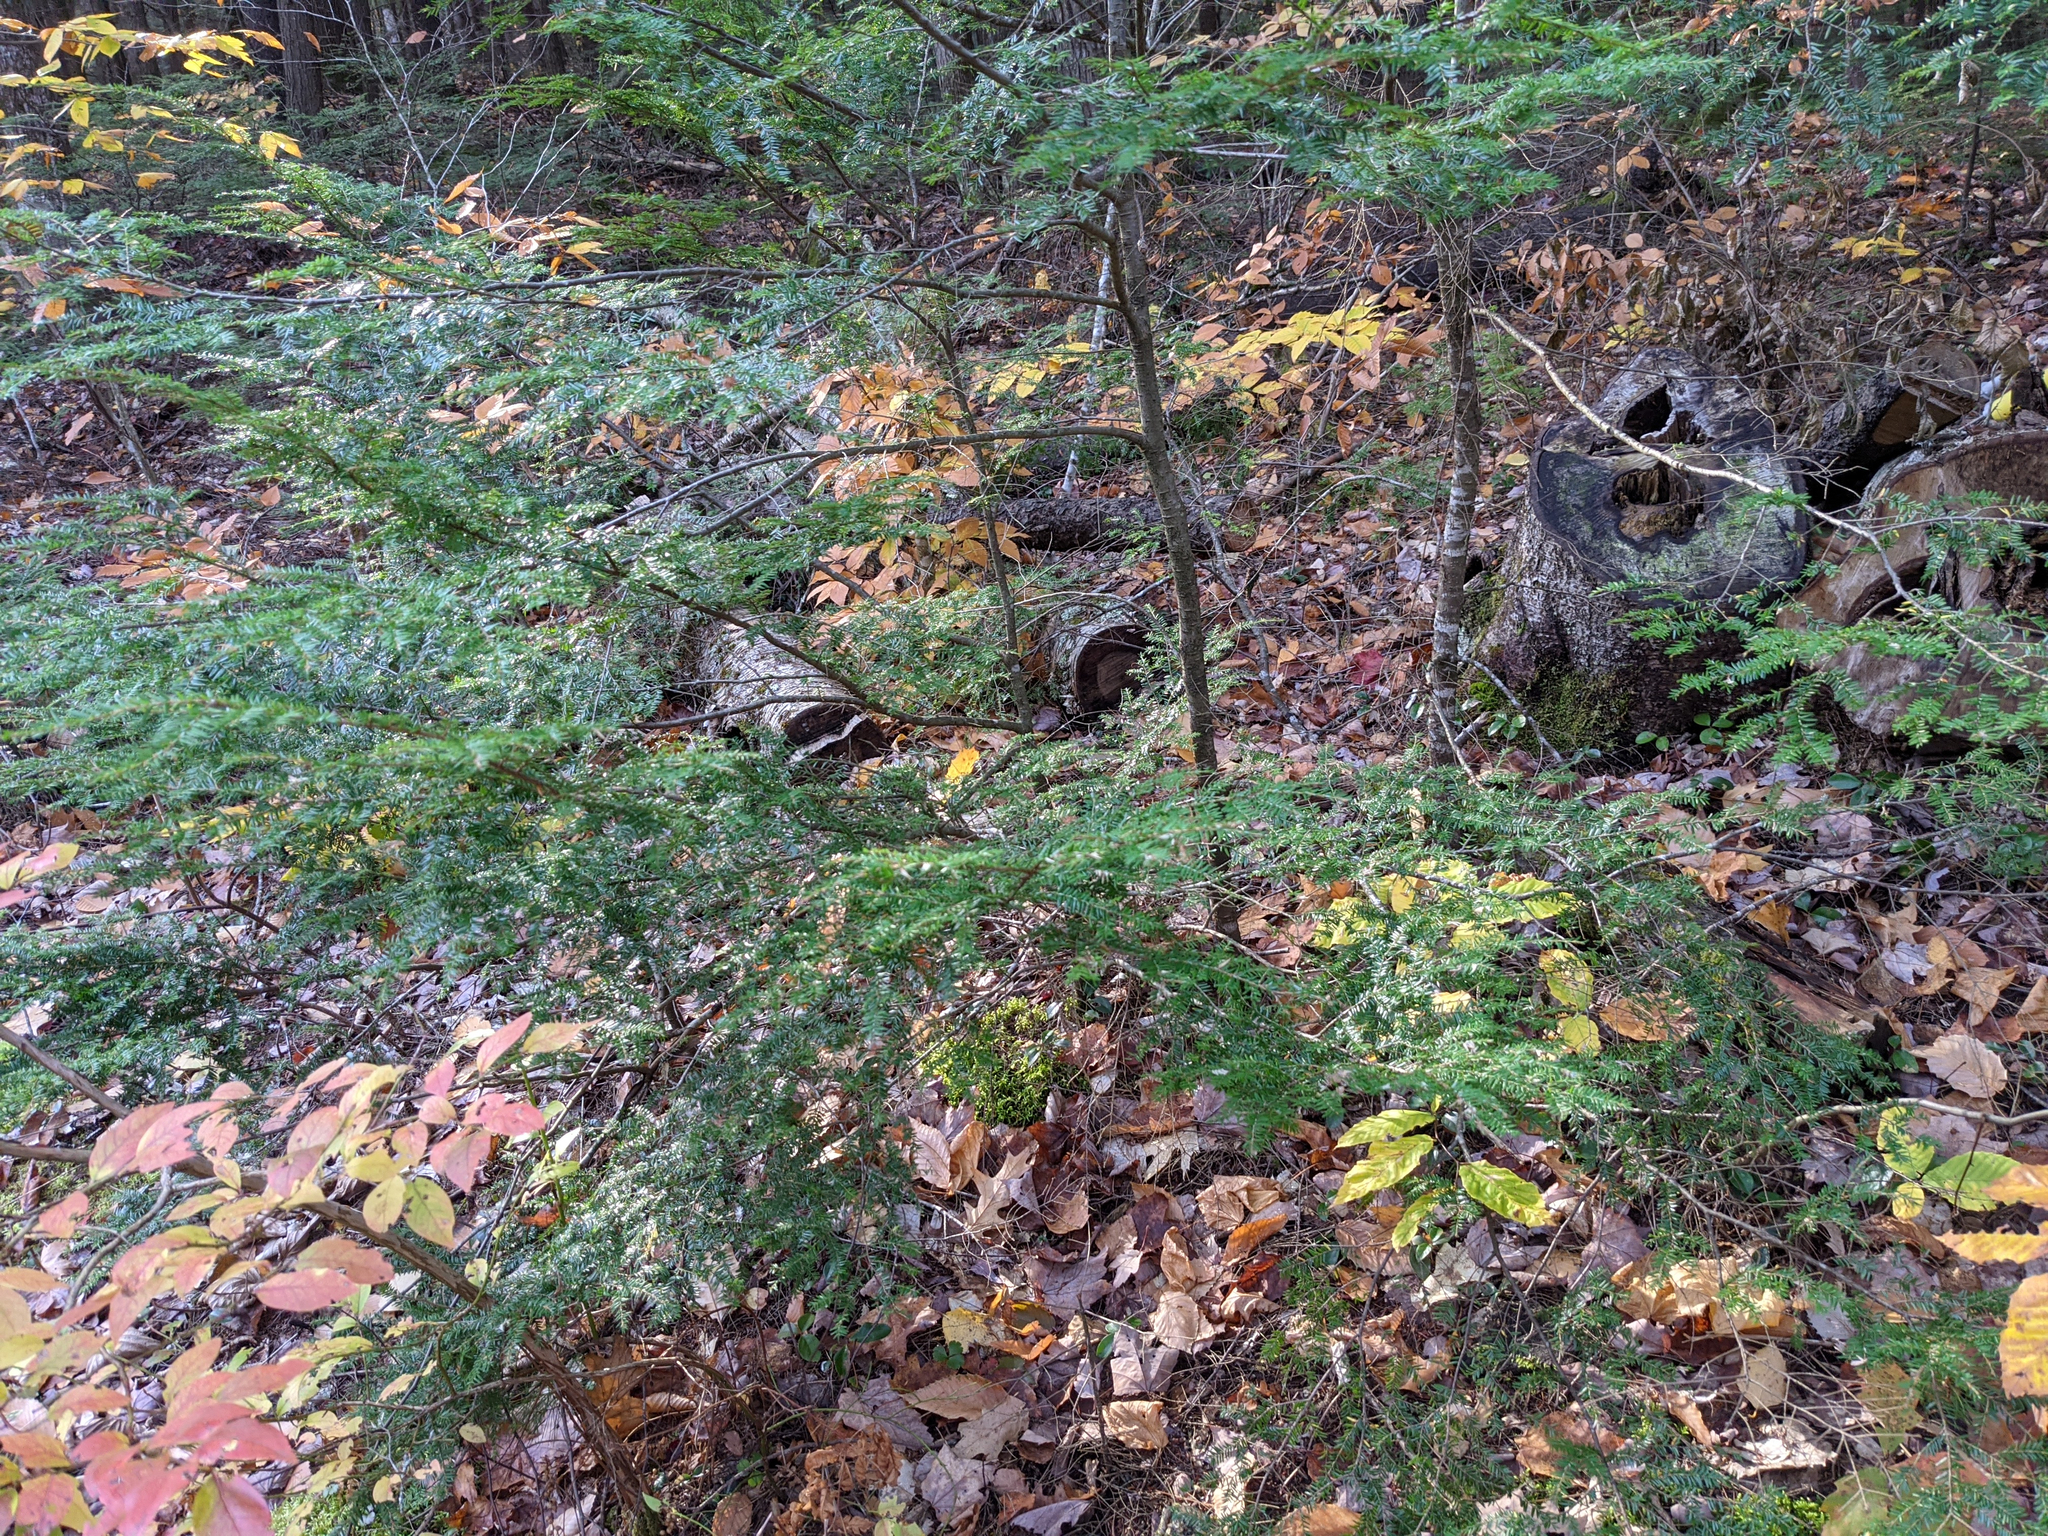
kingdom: Plantae
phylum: Tracheophyta
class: Pinopsida
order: Pinales
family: Pinaceae
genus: Tsuga
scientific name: Tsuga canadensis
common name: Eastern hemlock
